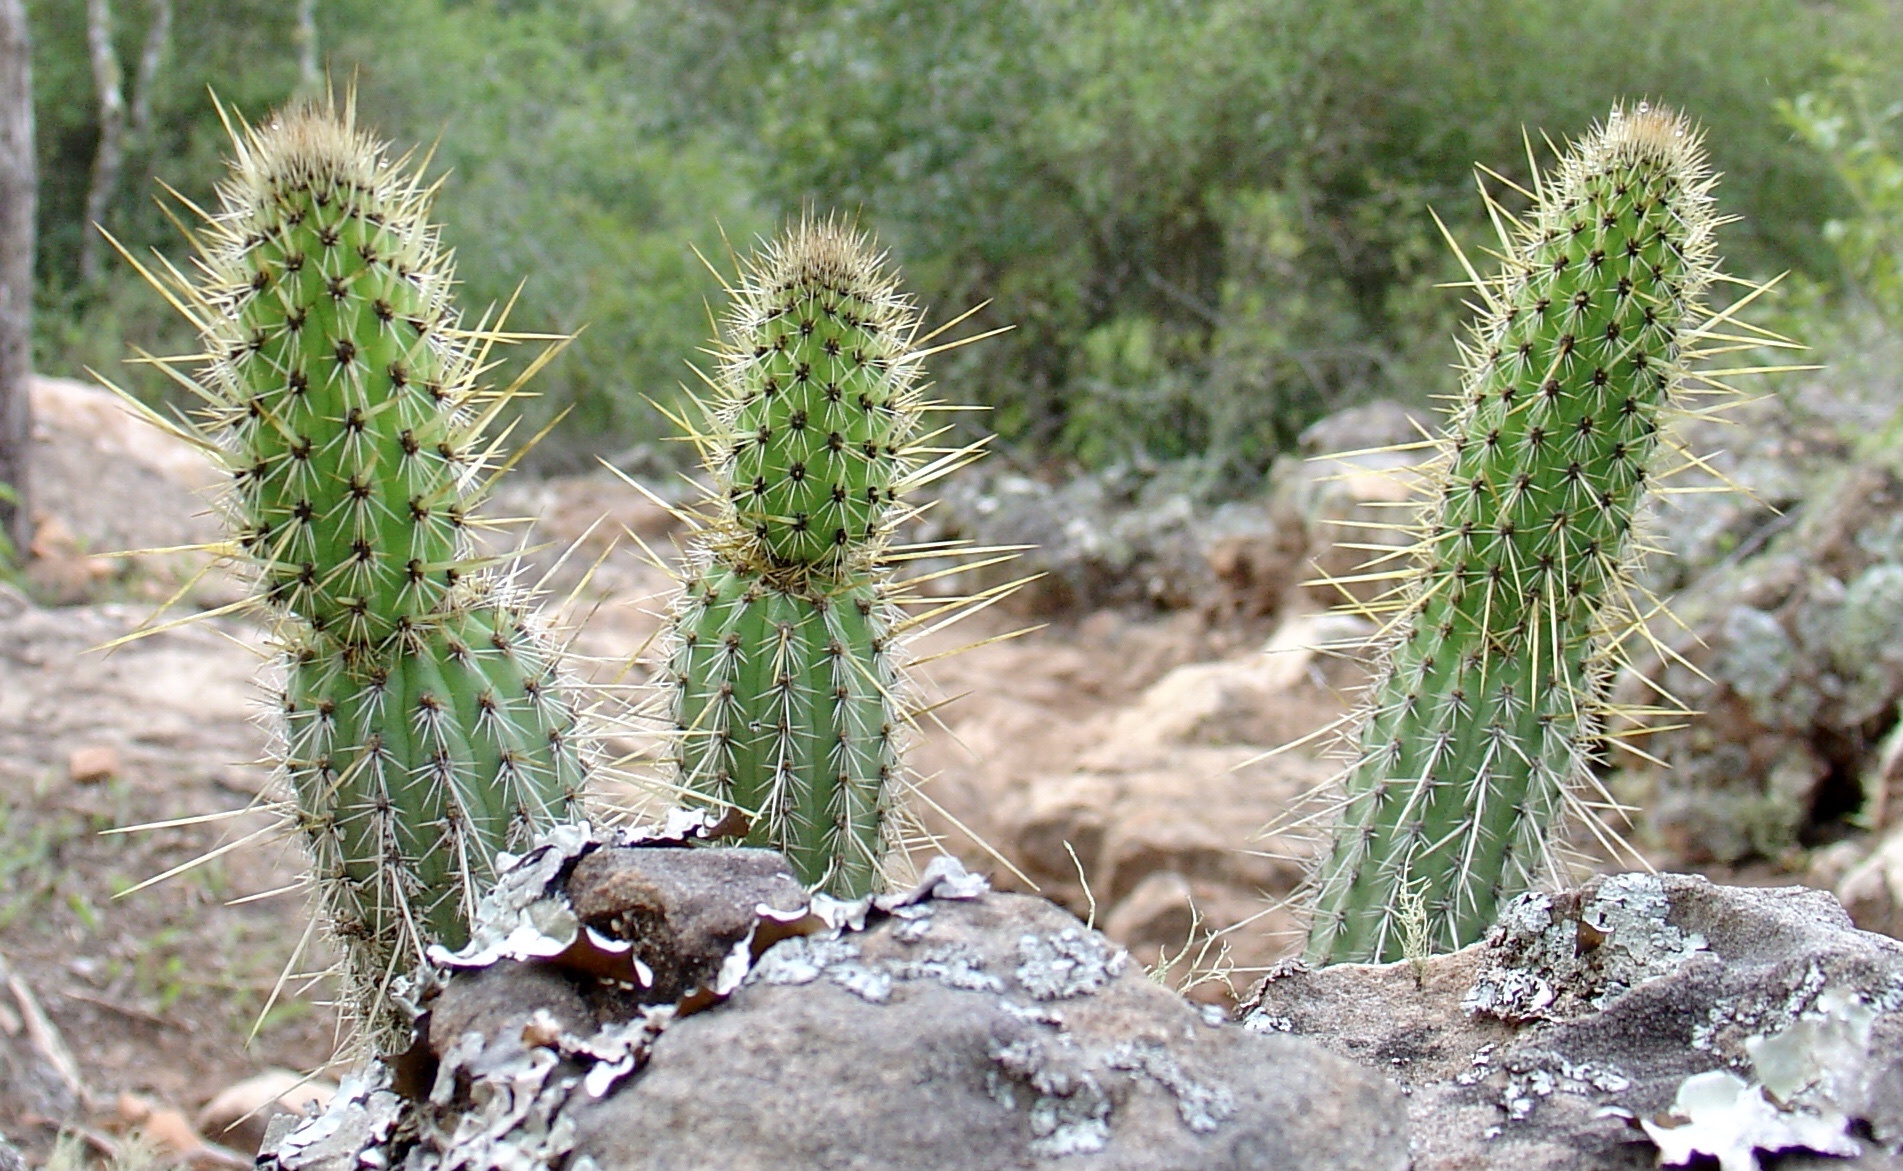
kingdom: Plantae
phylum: Tracheophyta
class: Magnoliopsida
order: Caryophyllales
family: Cactaceae
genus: Borzicactus
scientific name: Borzicactus samaipatanus
